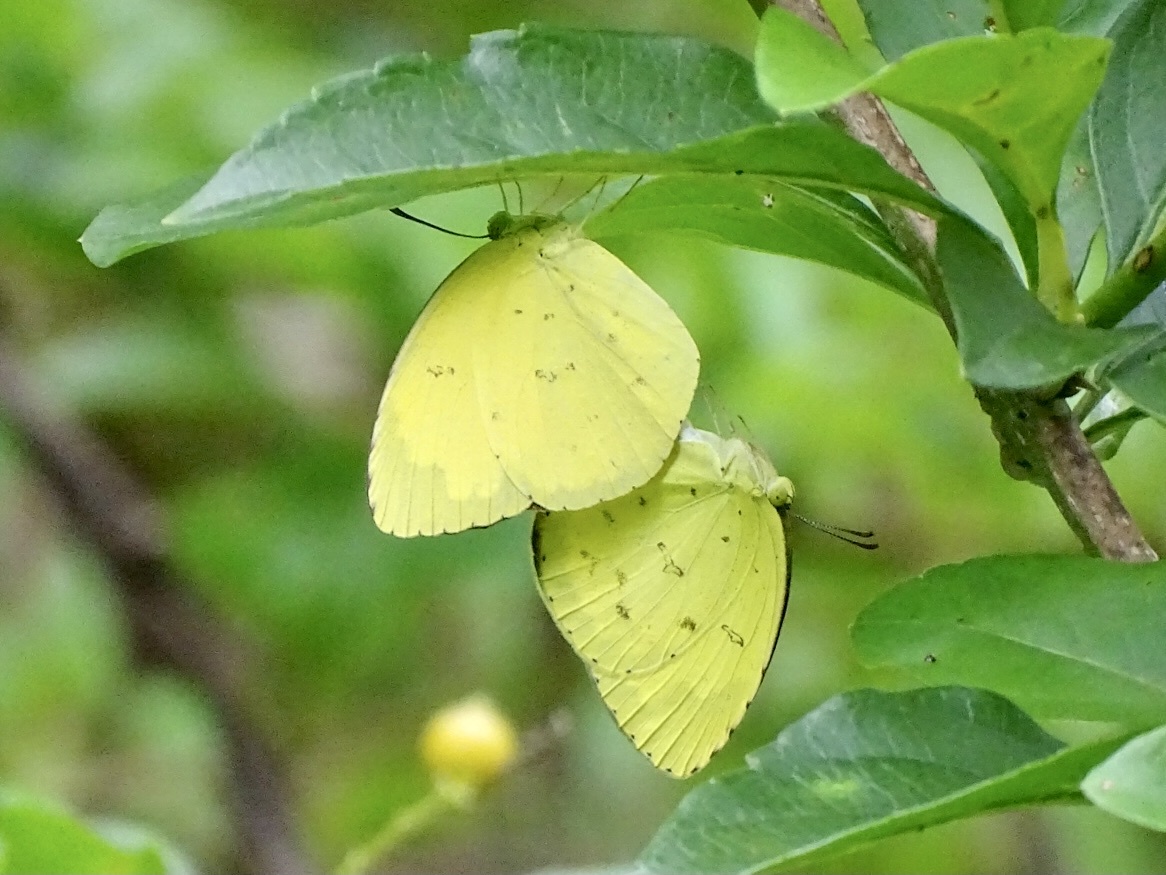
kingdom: Animalia
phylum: Arthropoda
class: Insecta
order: Lepidoptera
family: Pieridae
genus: Eurema
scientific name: Eurema hecabe
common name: Pale grass yellow
